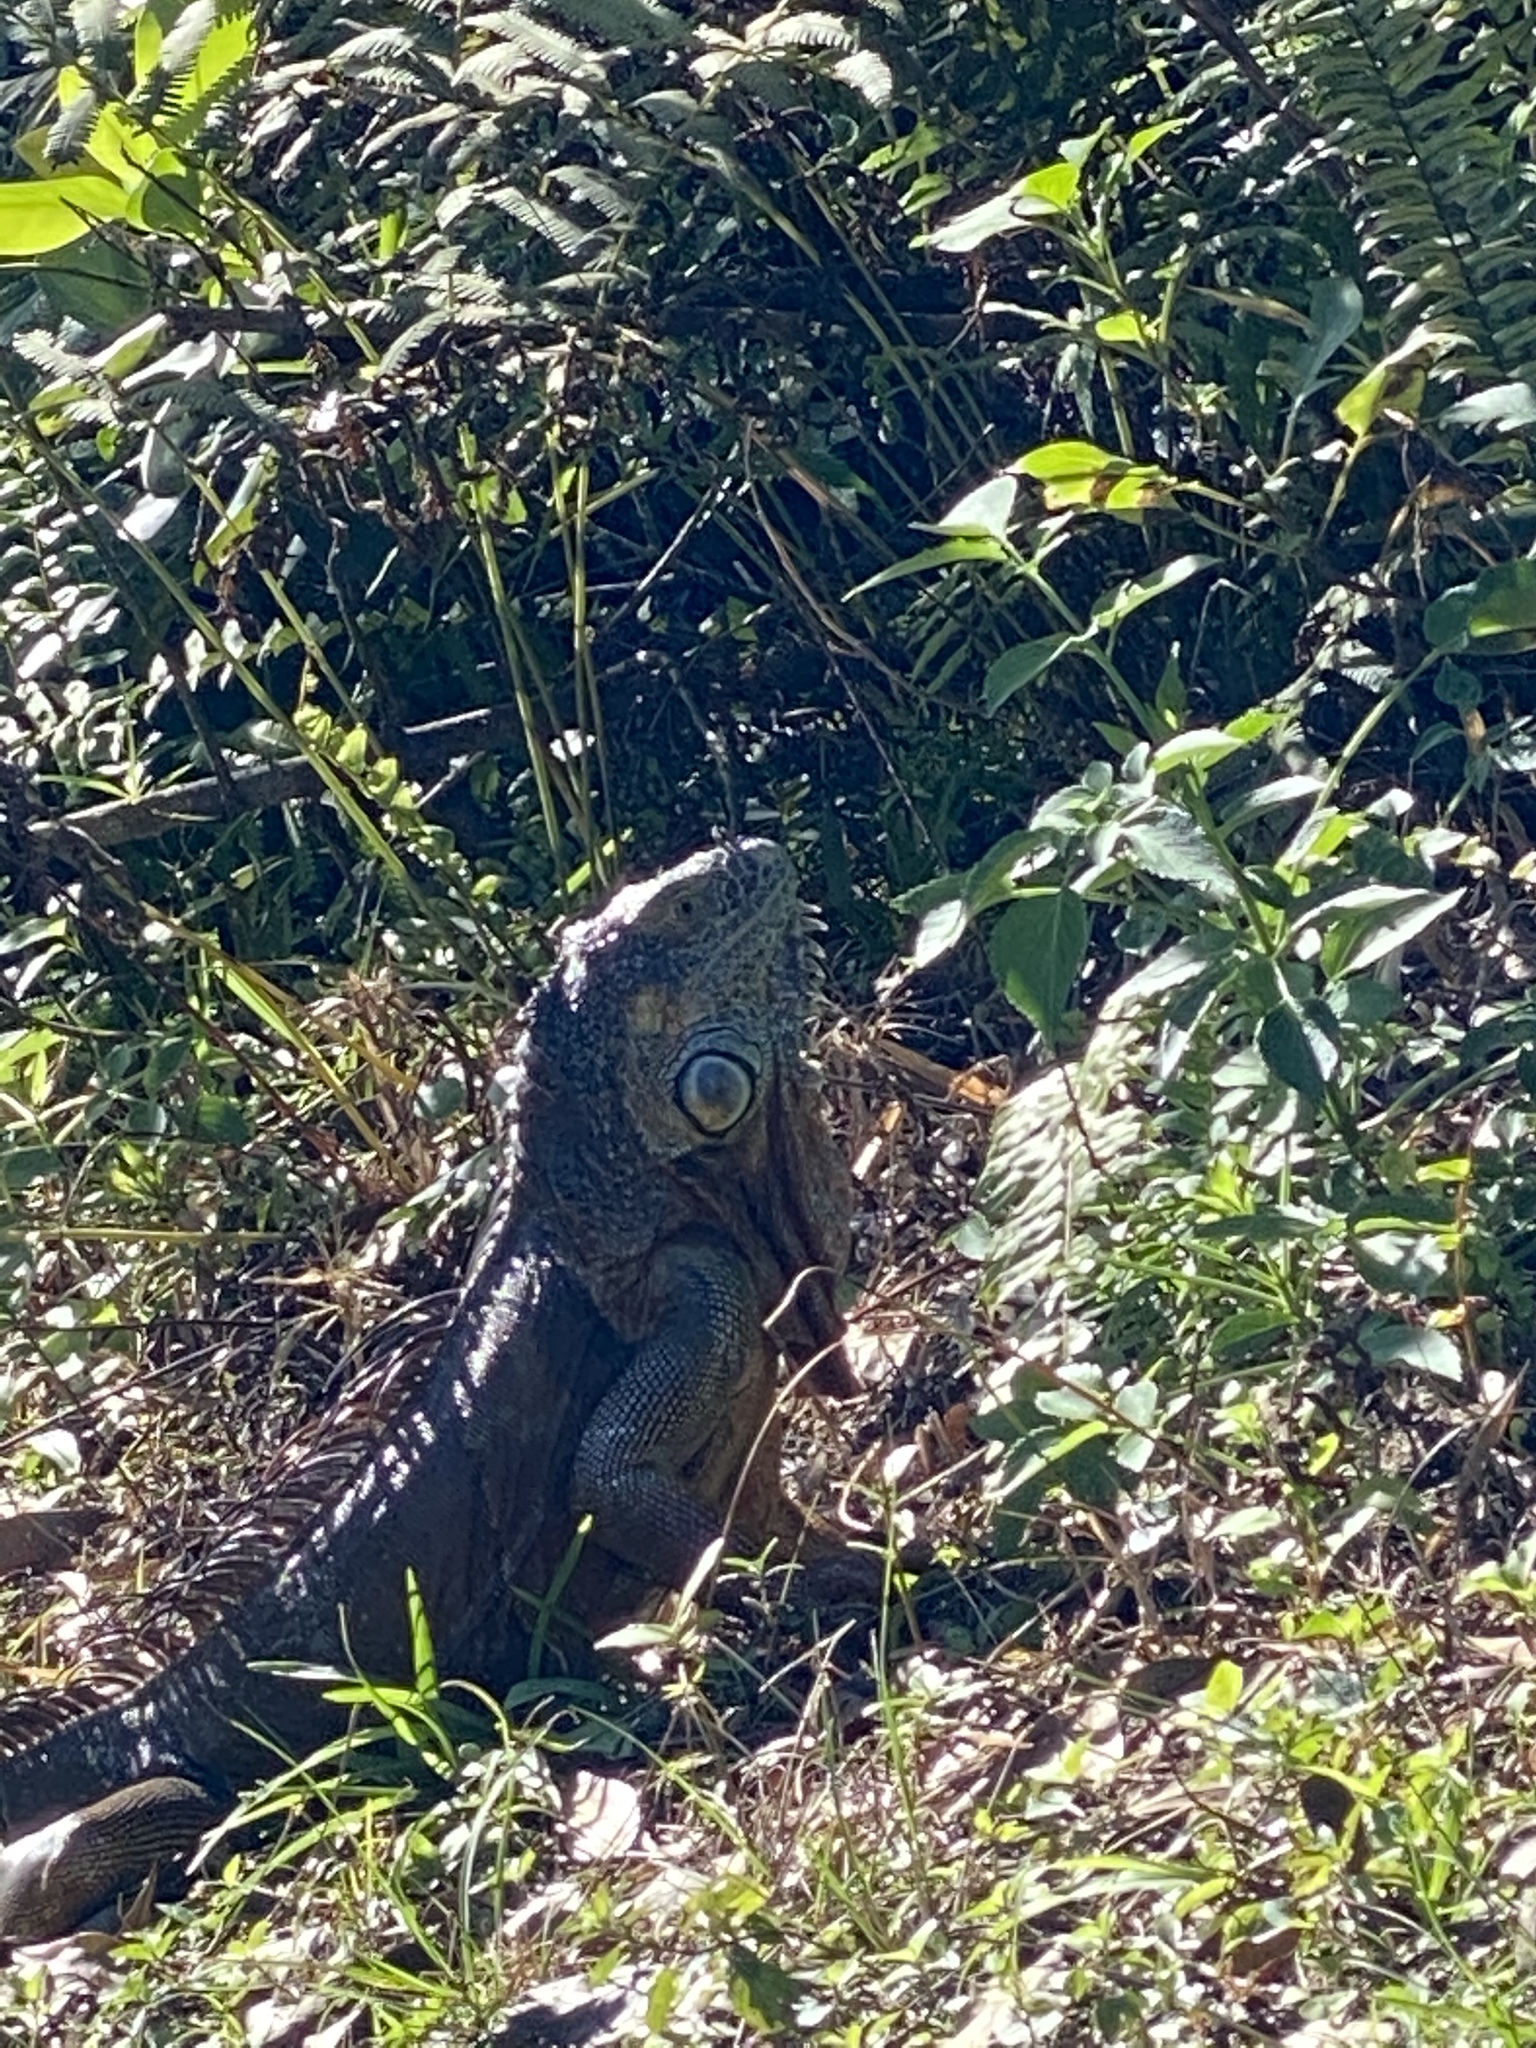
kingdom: Animalia
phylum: Chordata
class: Squamata
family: Iguanidae
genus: Iguana
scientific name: Iguana iguana
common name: Green iguana
